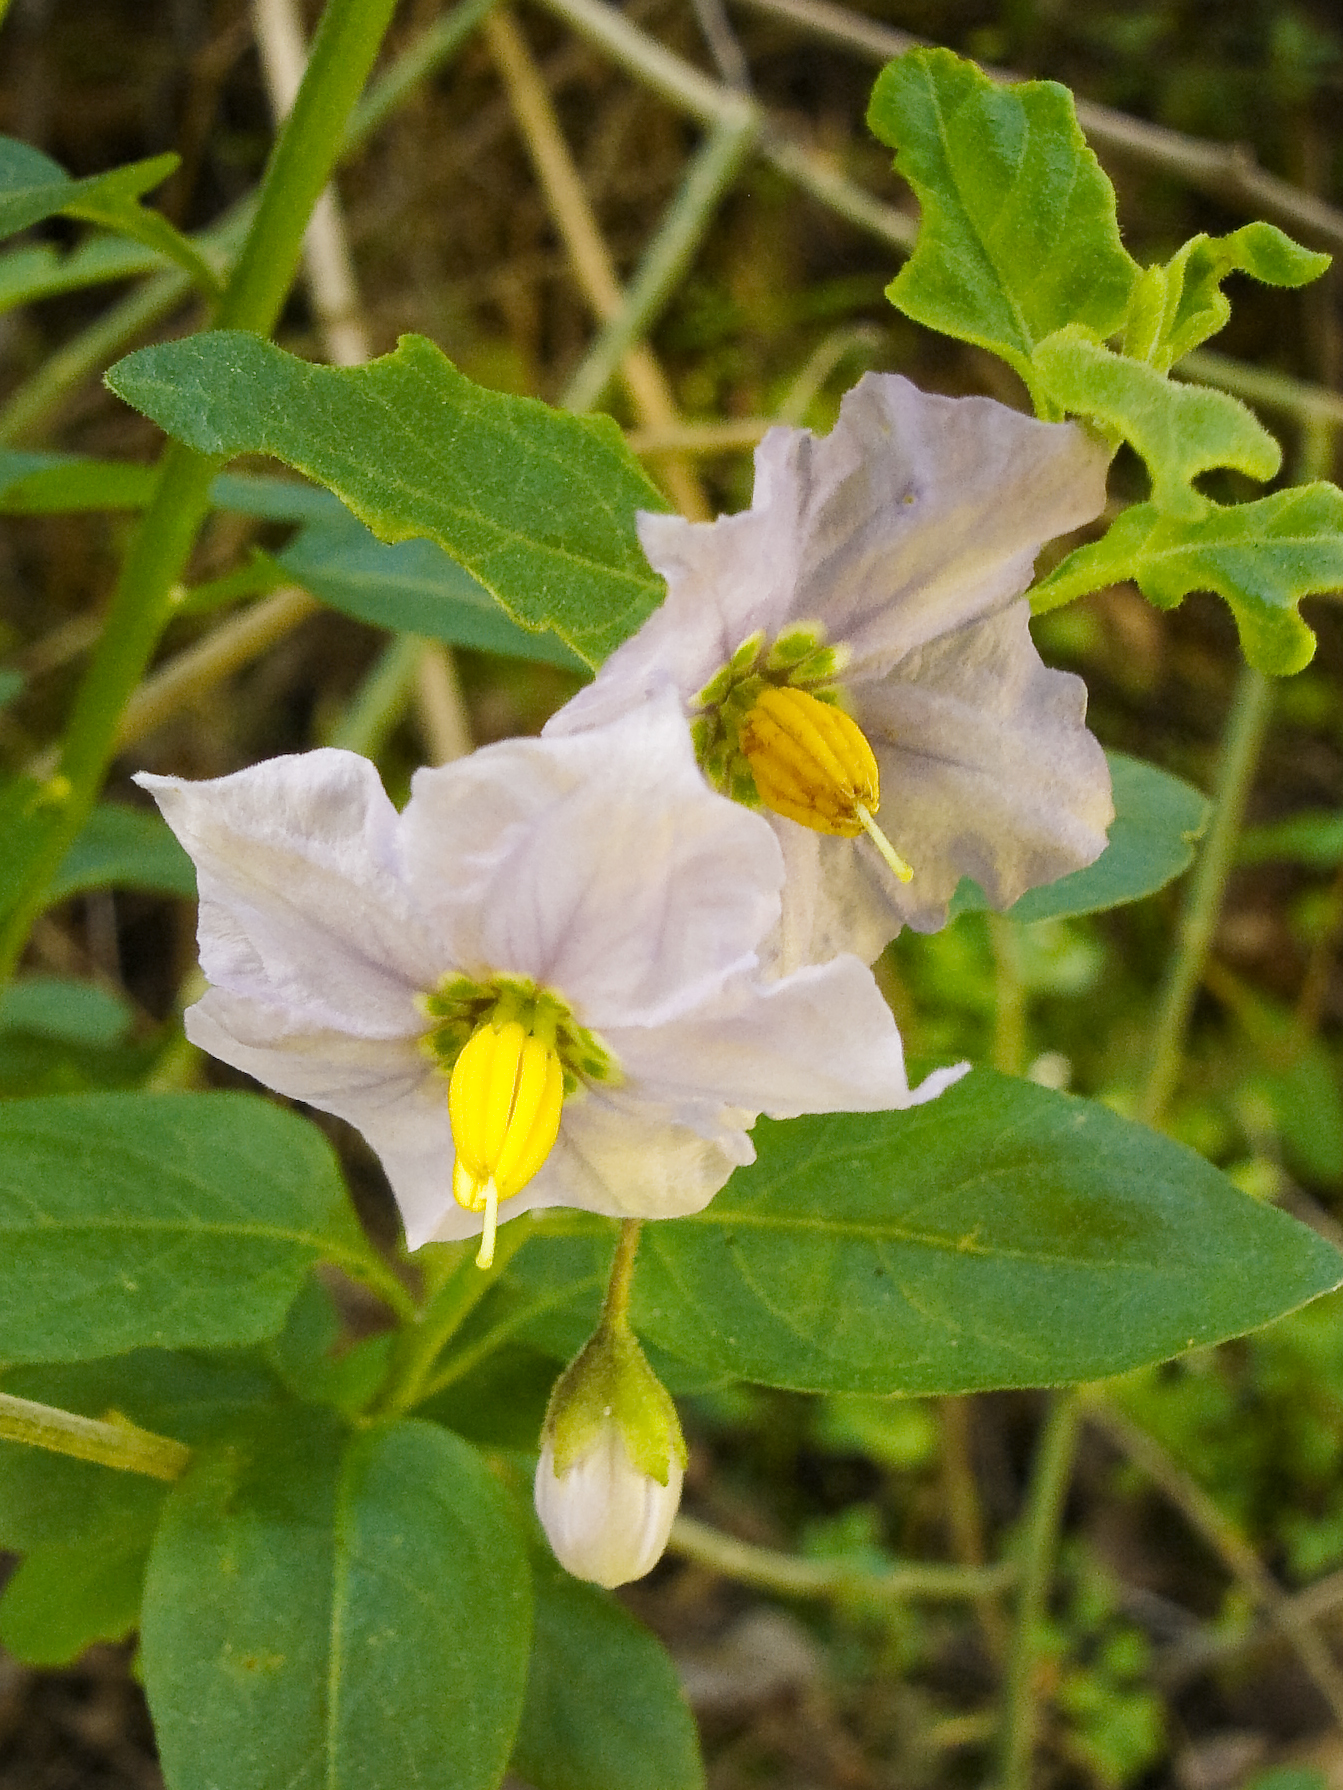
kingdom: Plantae
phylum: Tracheophyta
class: Magnoliopsida
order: Solanales
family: Solanaceae
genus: Solanum
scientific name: Solanum umbelliferum
